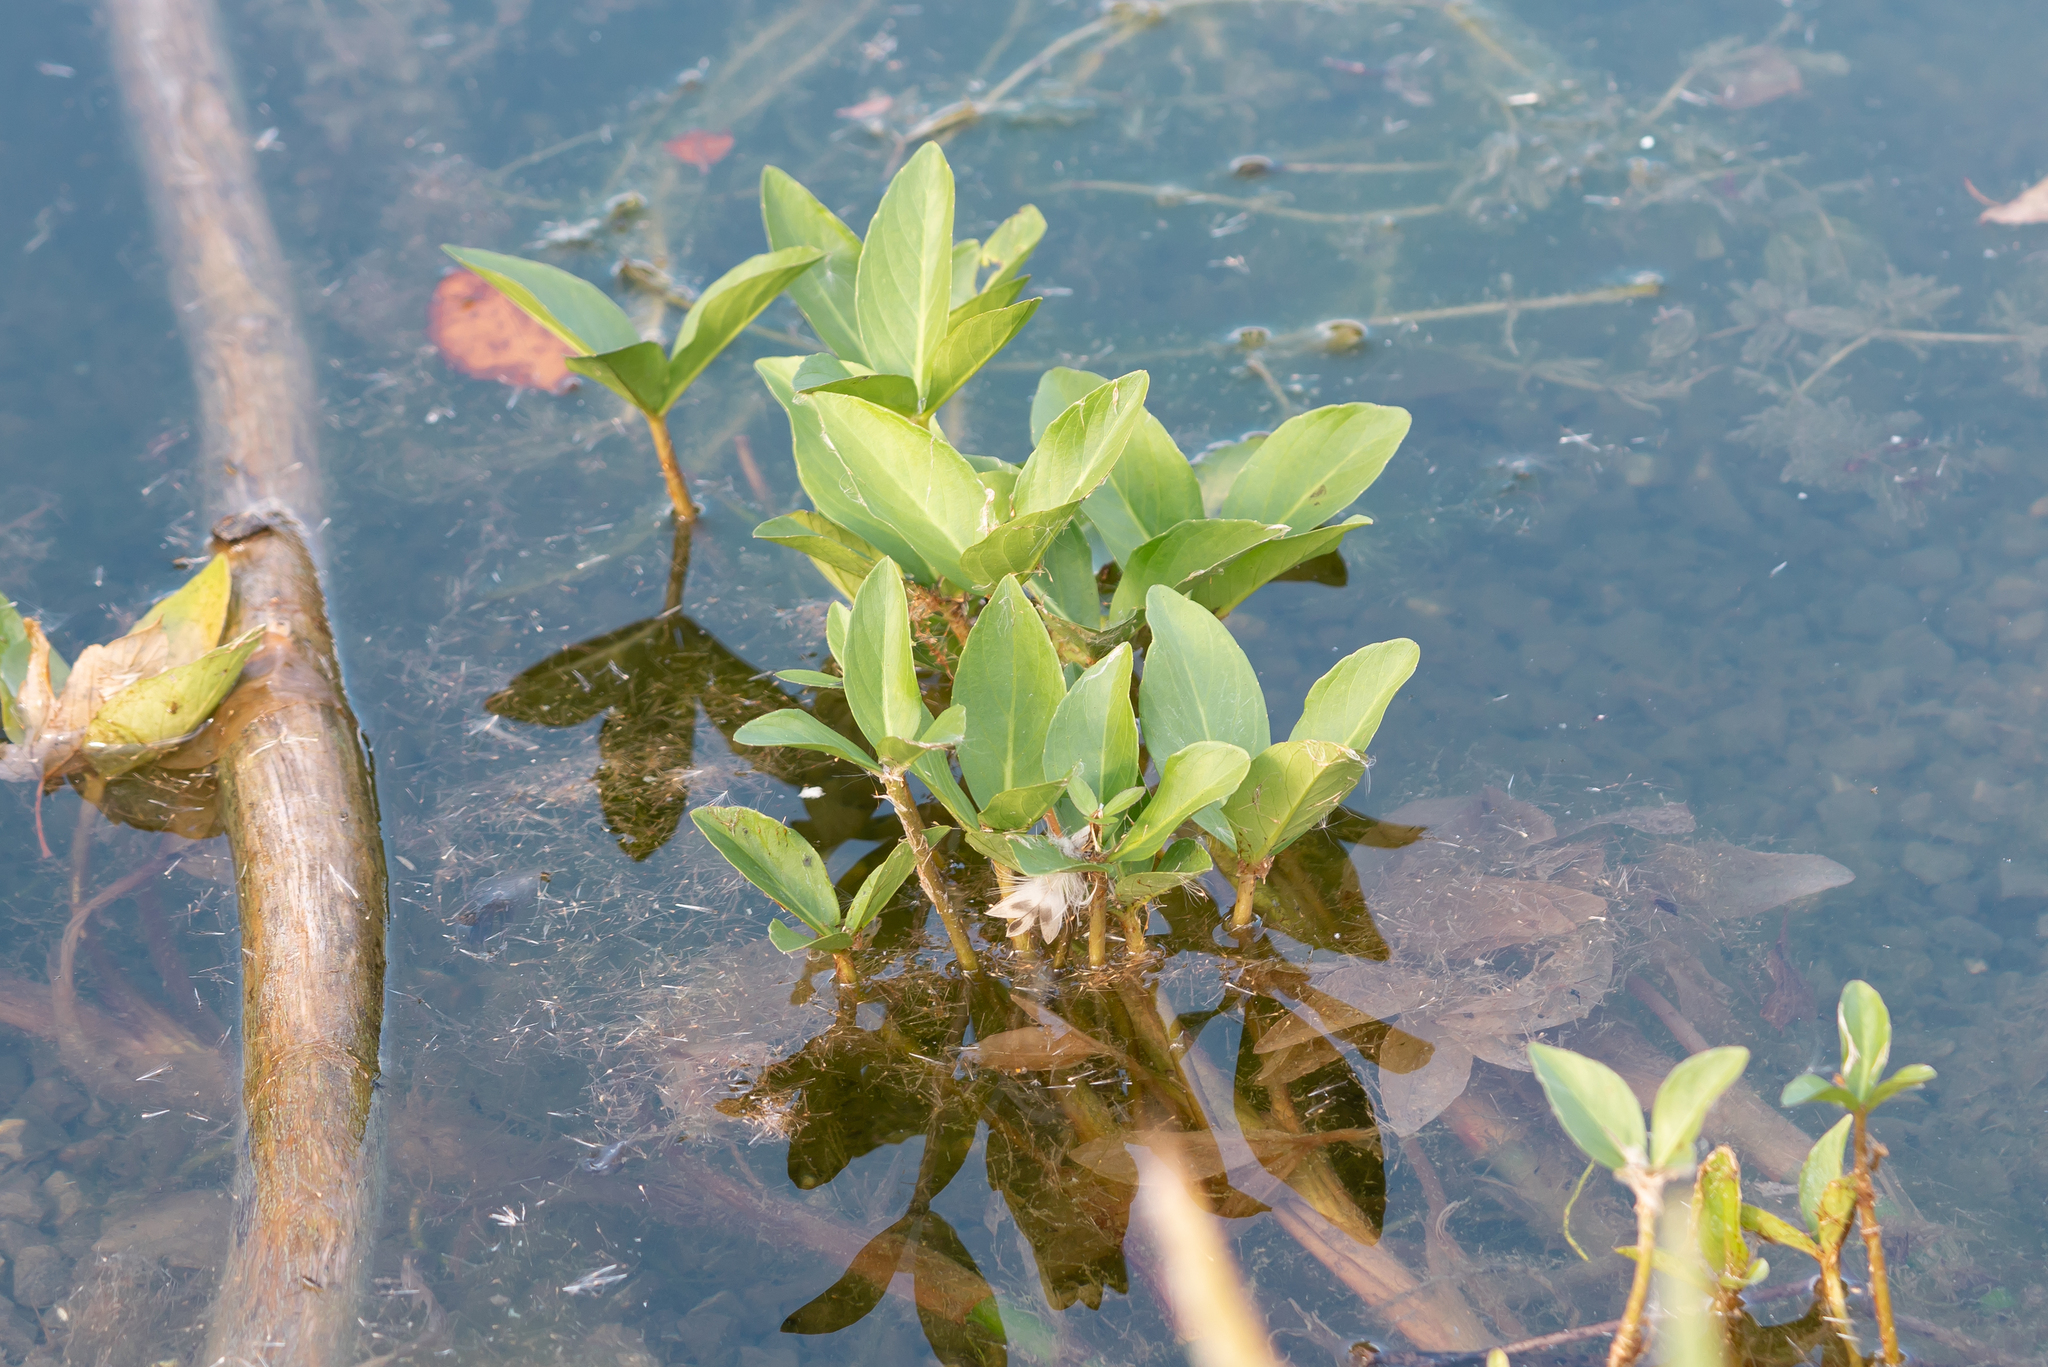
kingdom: Plantae
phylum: Tracheophyta
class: Magnoliopsida
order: Asterales
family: Menyanthaceae
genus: Menyanthes
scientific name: Menyanthes trifoliata
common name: Bogbean
